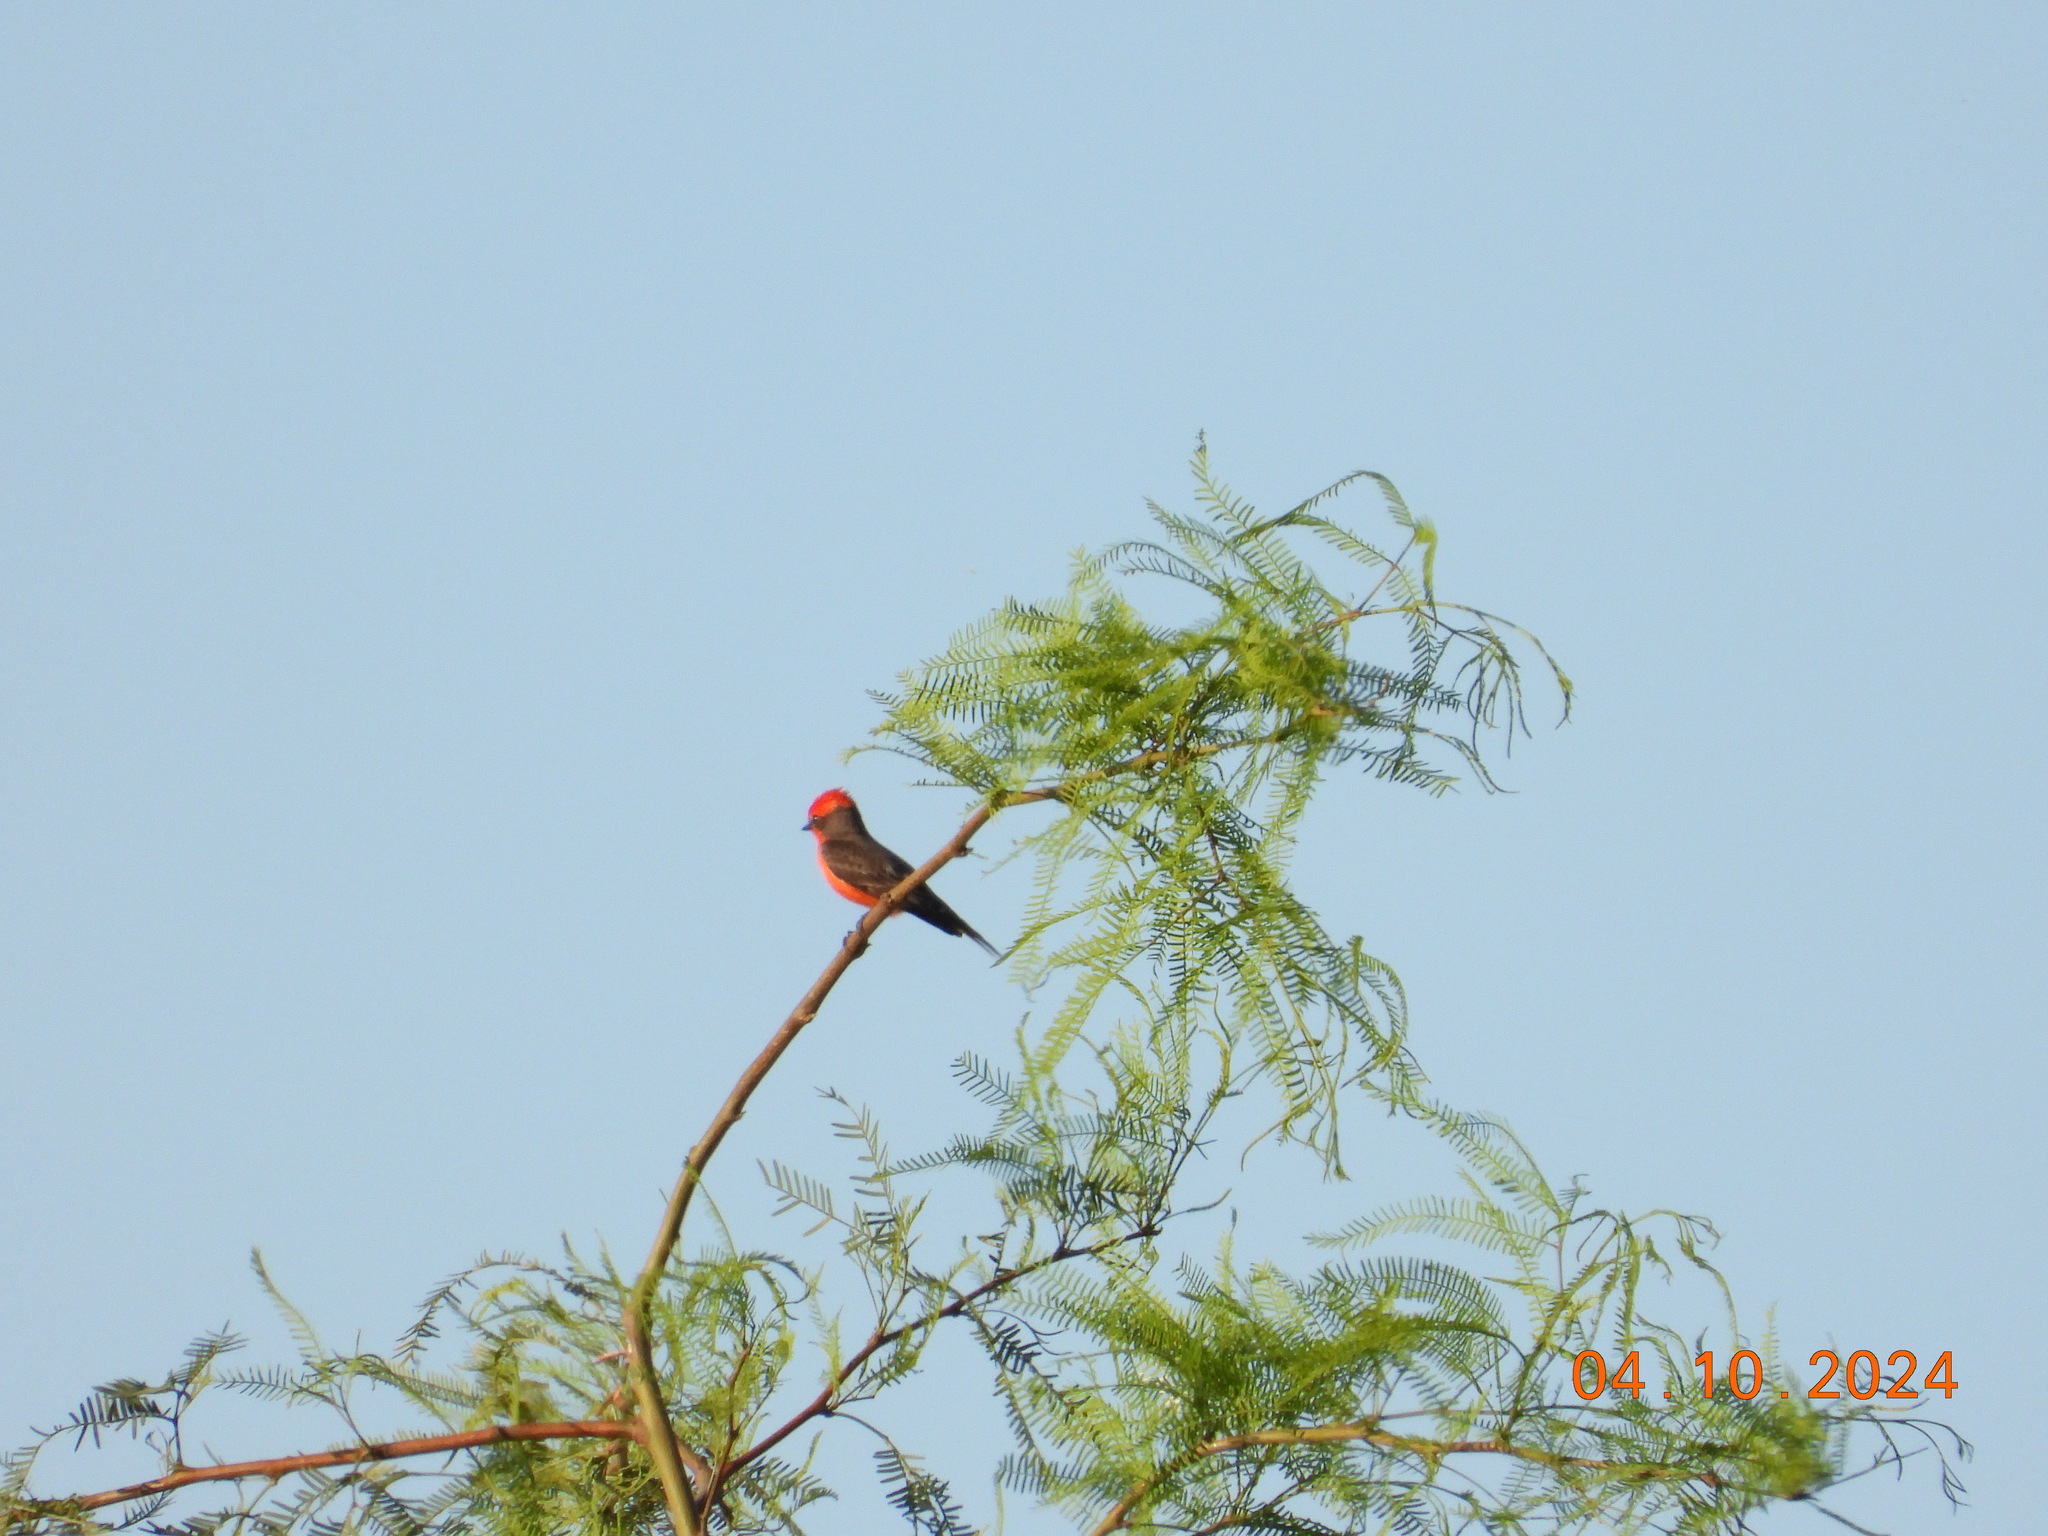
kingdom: Animalia
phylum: Chordata
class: Aves
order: Passeriformes
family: Tyrannidae
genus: Pyrocephalus
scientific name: Pyrocephalus rubinus
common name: Vermilion flycatcher
